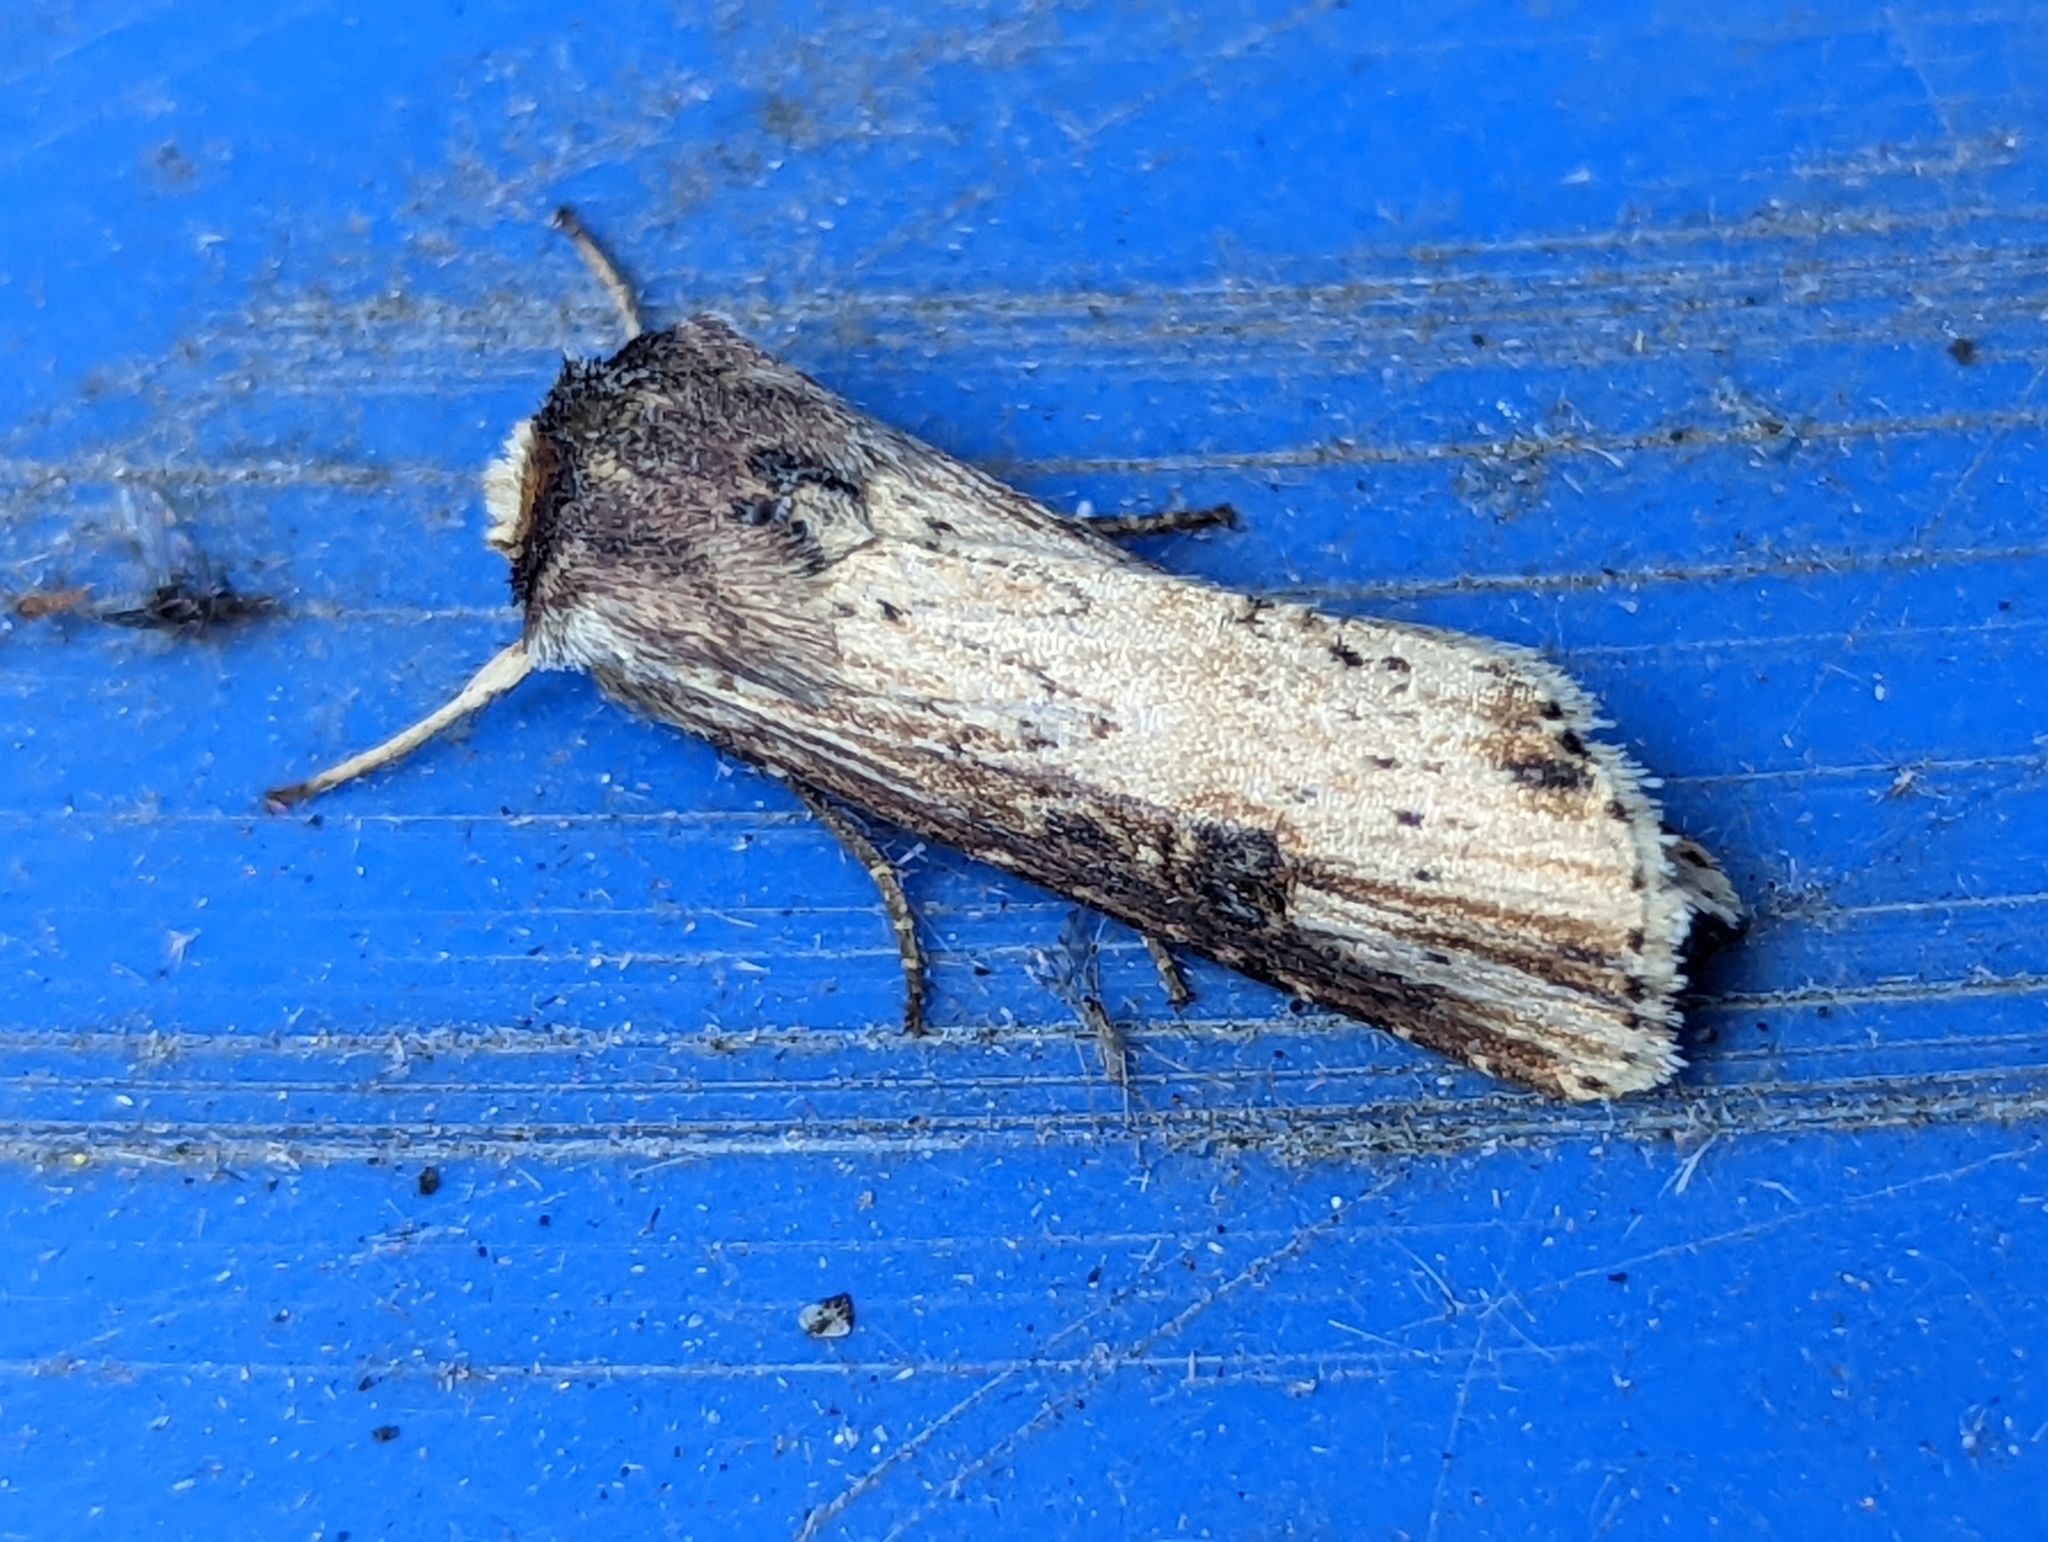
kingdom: Animalia
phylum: Arthropoda
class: Insecta
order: Lepidoptera
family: Noctuidae
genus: Axylia
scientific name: Axylia putris
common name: Flame
